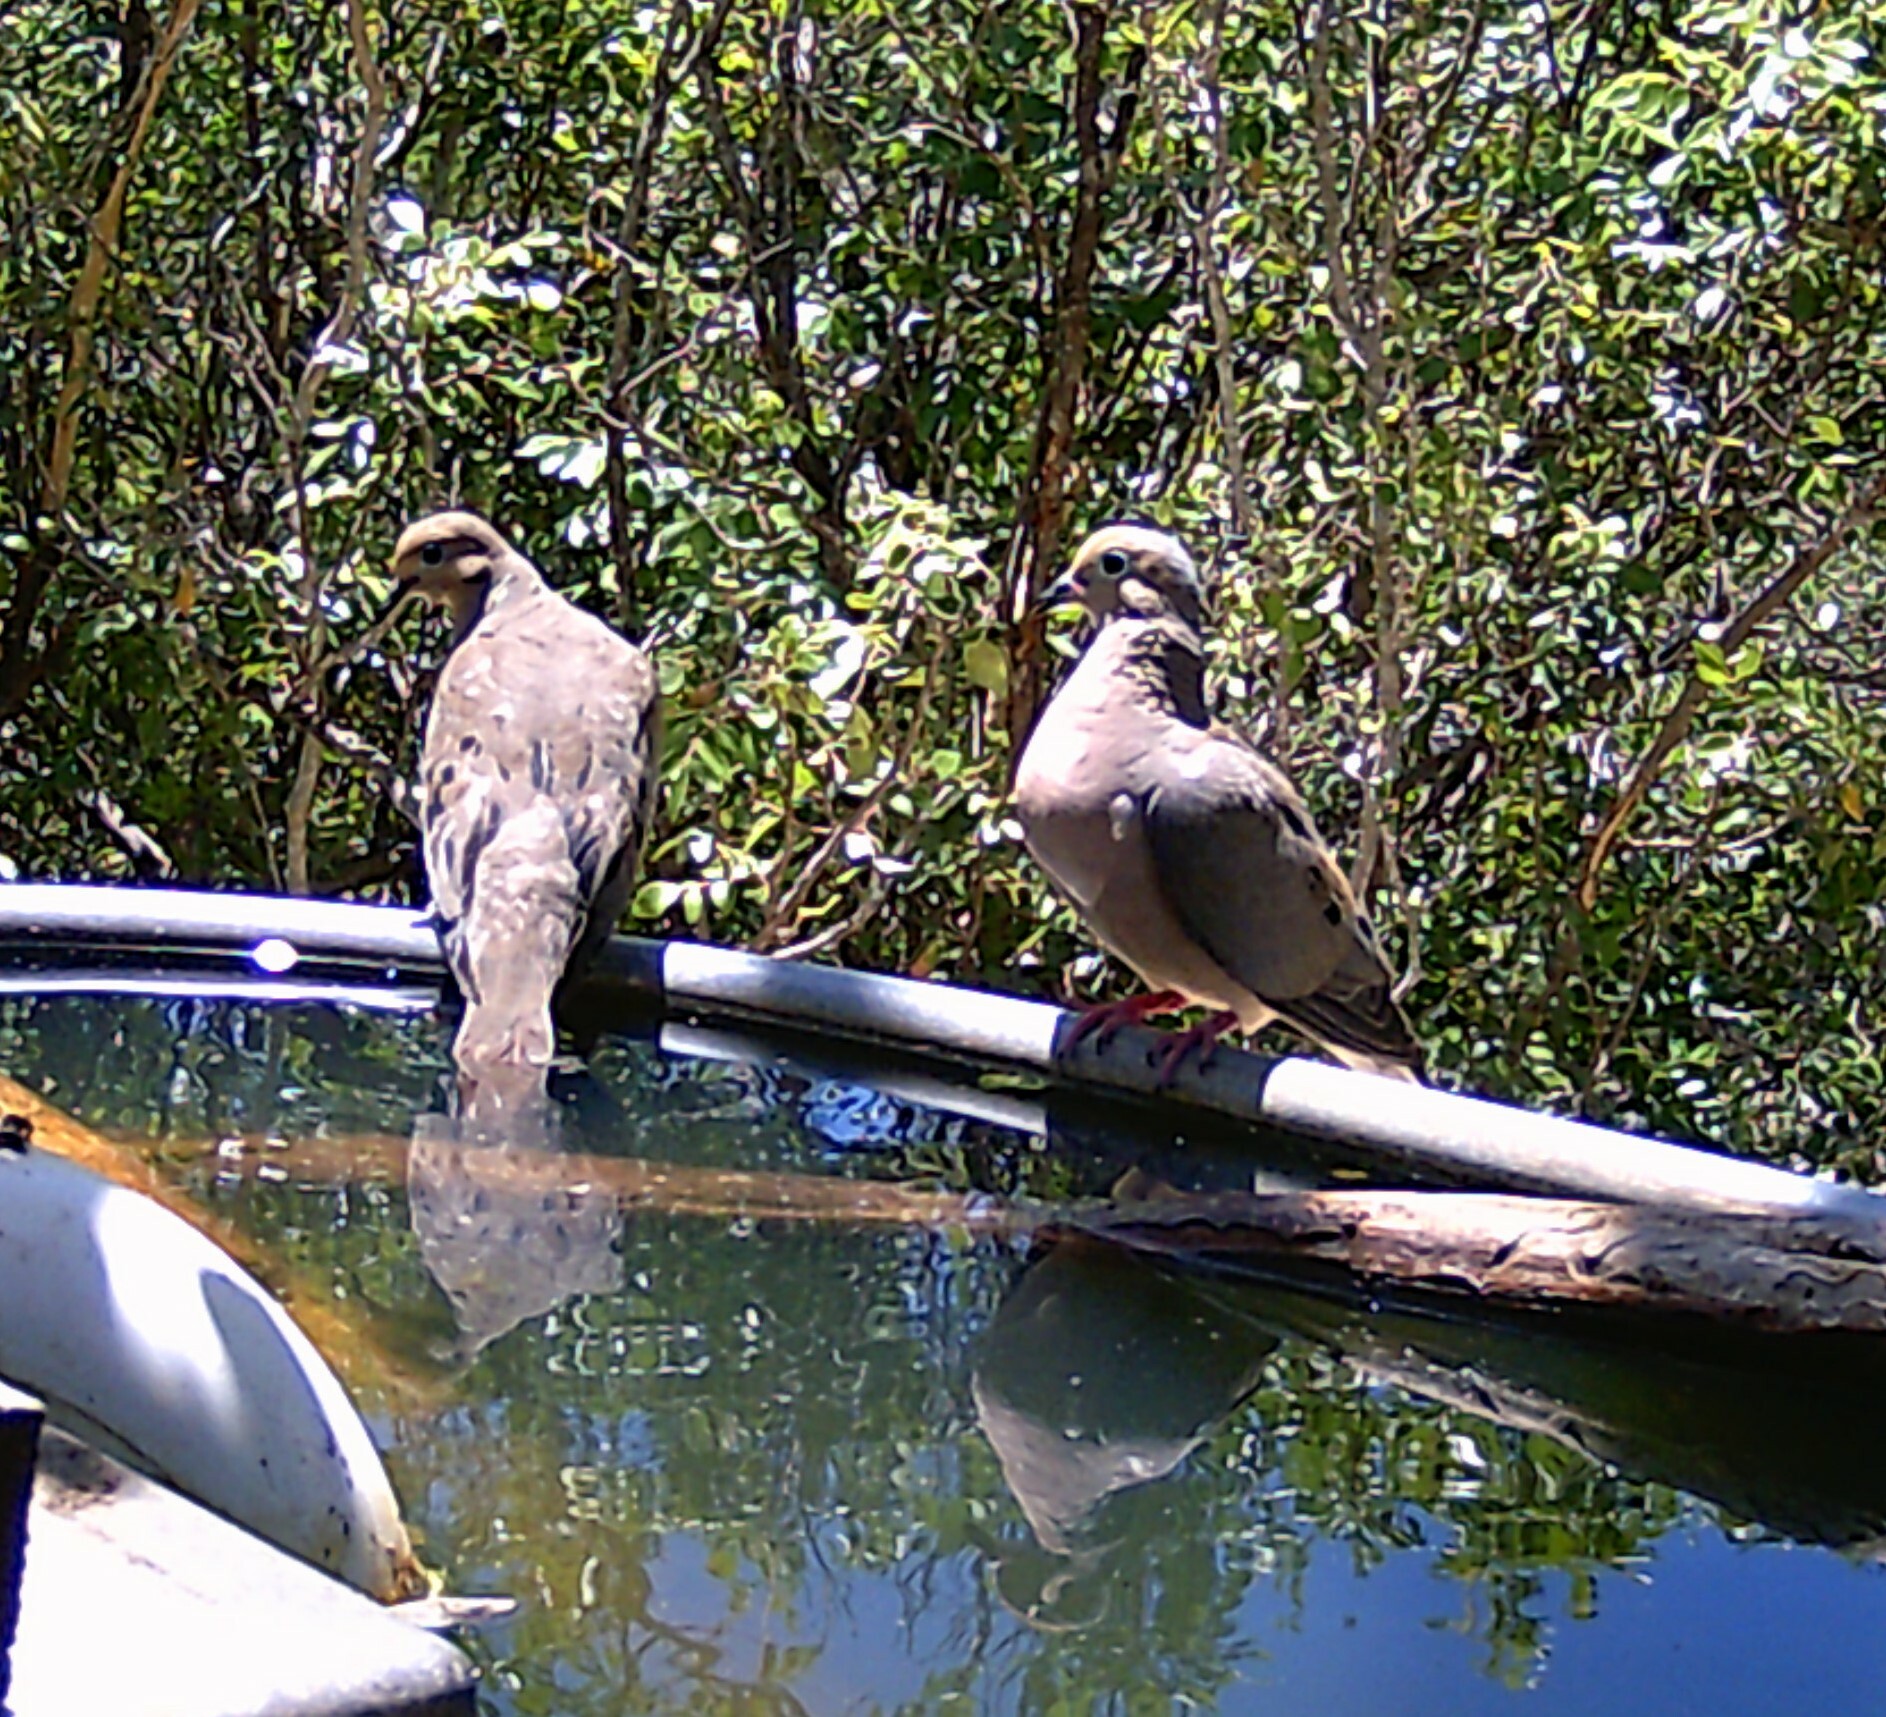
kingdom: Animalia
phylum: Chordata
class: Aves
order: Columbiformes
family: Columbidae
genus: Zenaida
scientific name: Zenaida macroura
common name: Mourning dove
